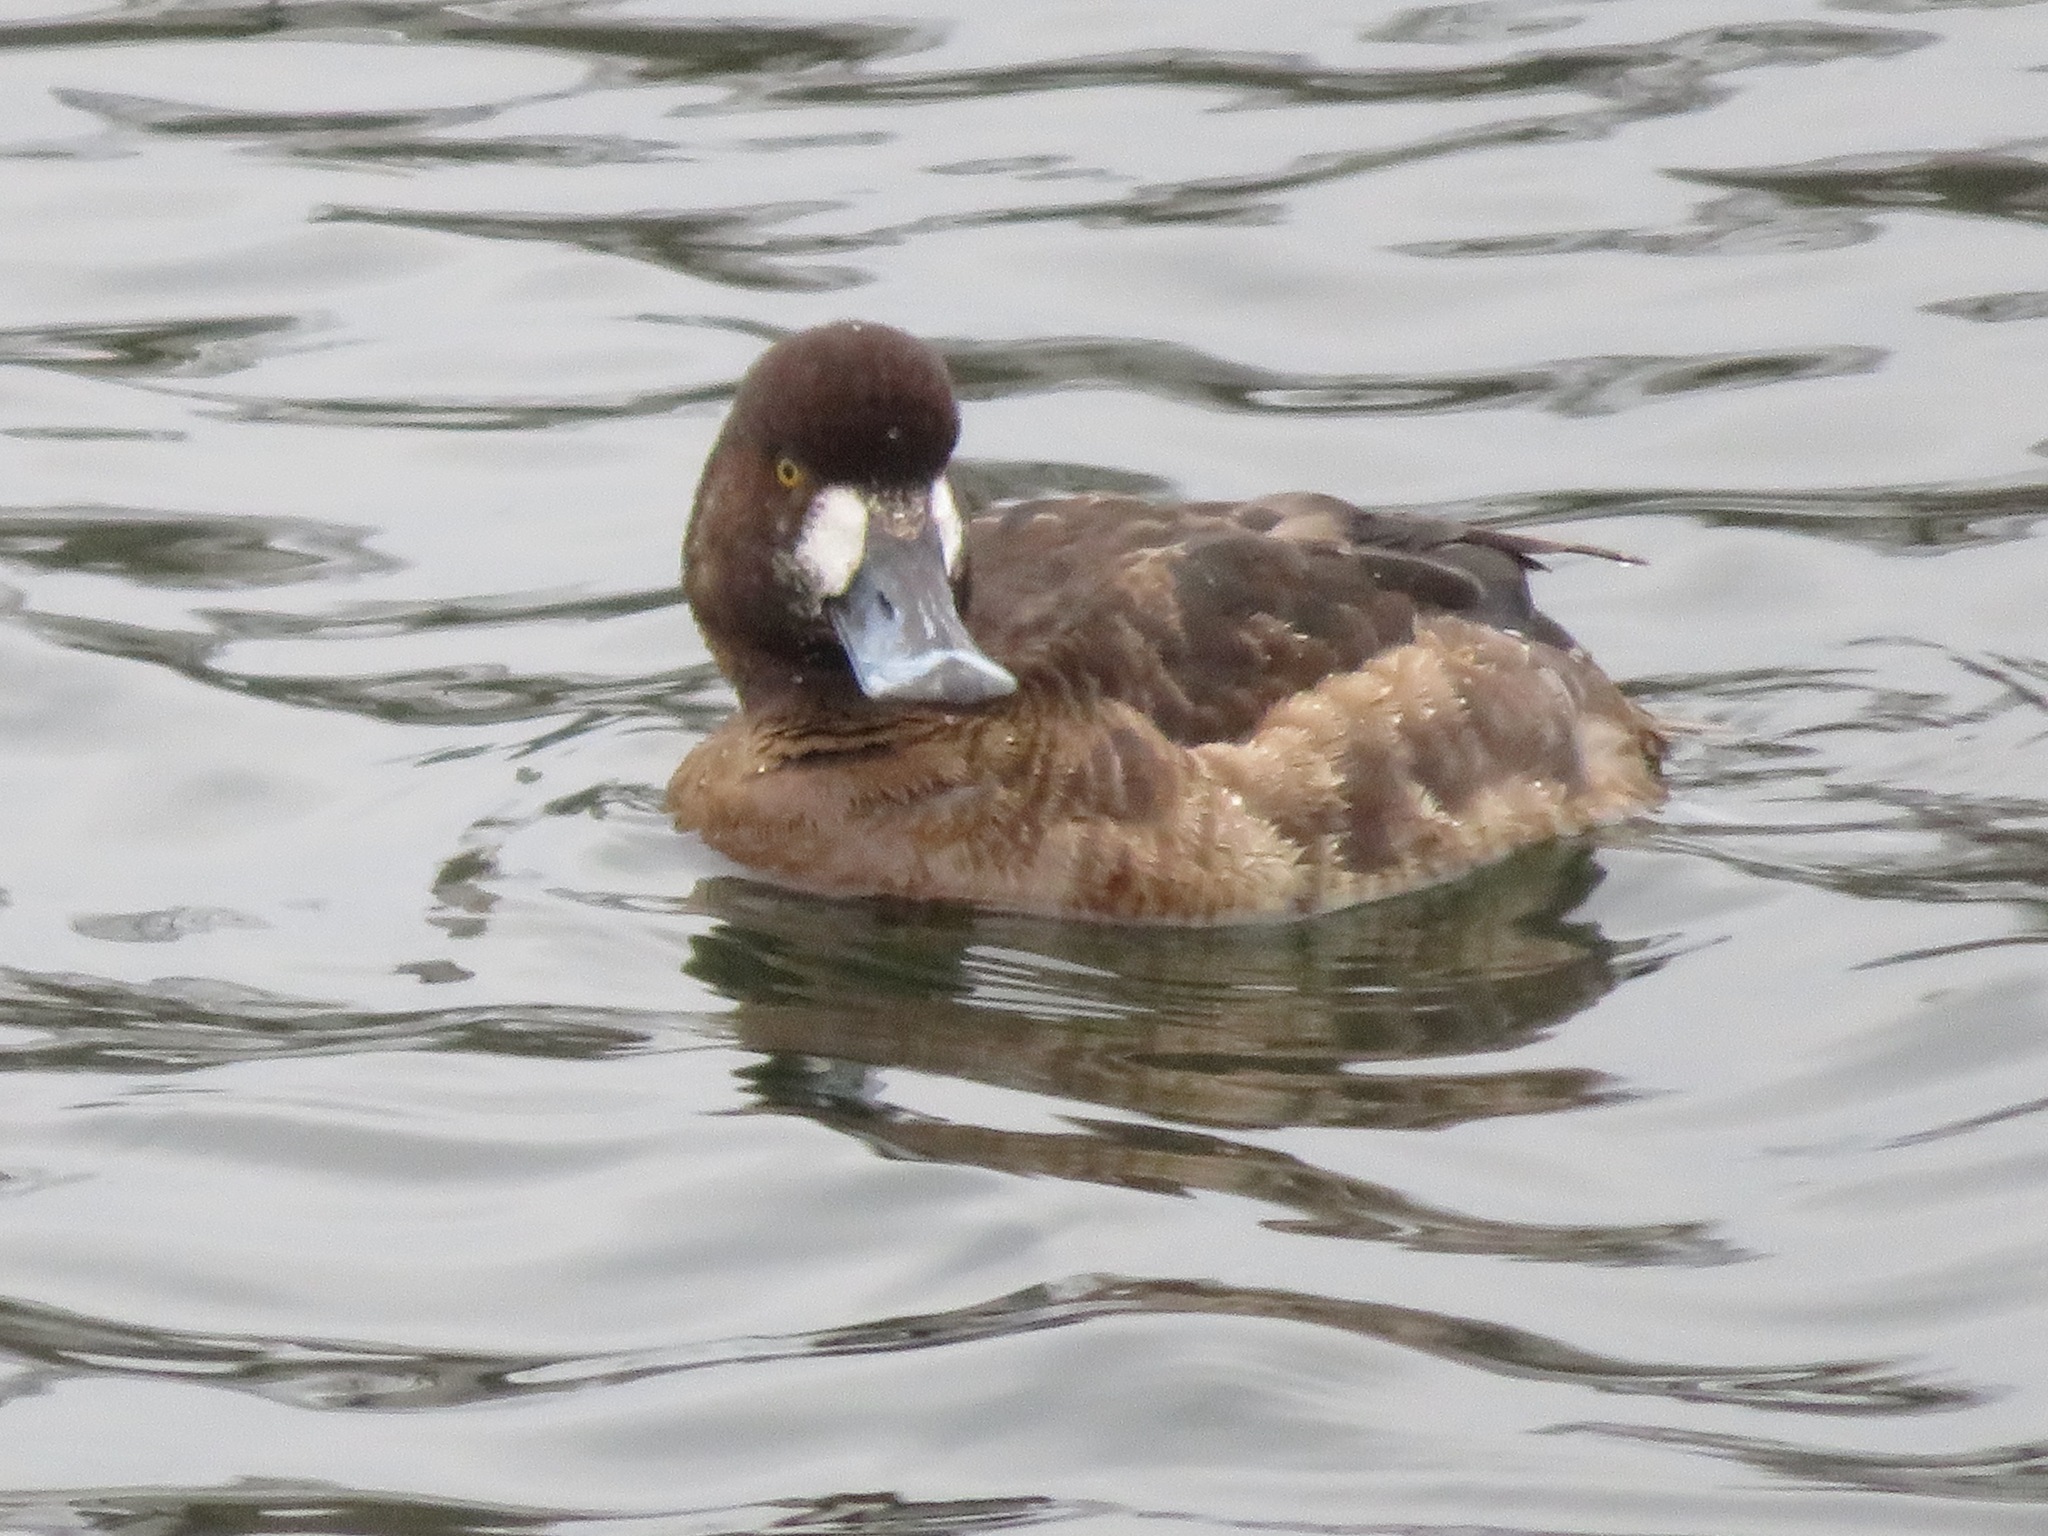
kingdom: Animalia
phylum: Chordata
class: Aves
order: Anseriformes
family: Anatidae
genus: Aythya
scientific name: Aythya marila
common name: Greater scaup
